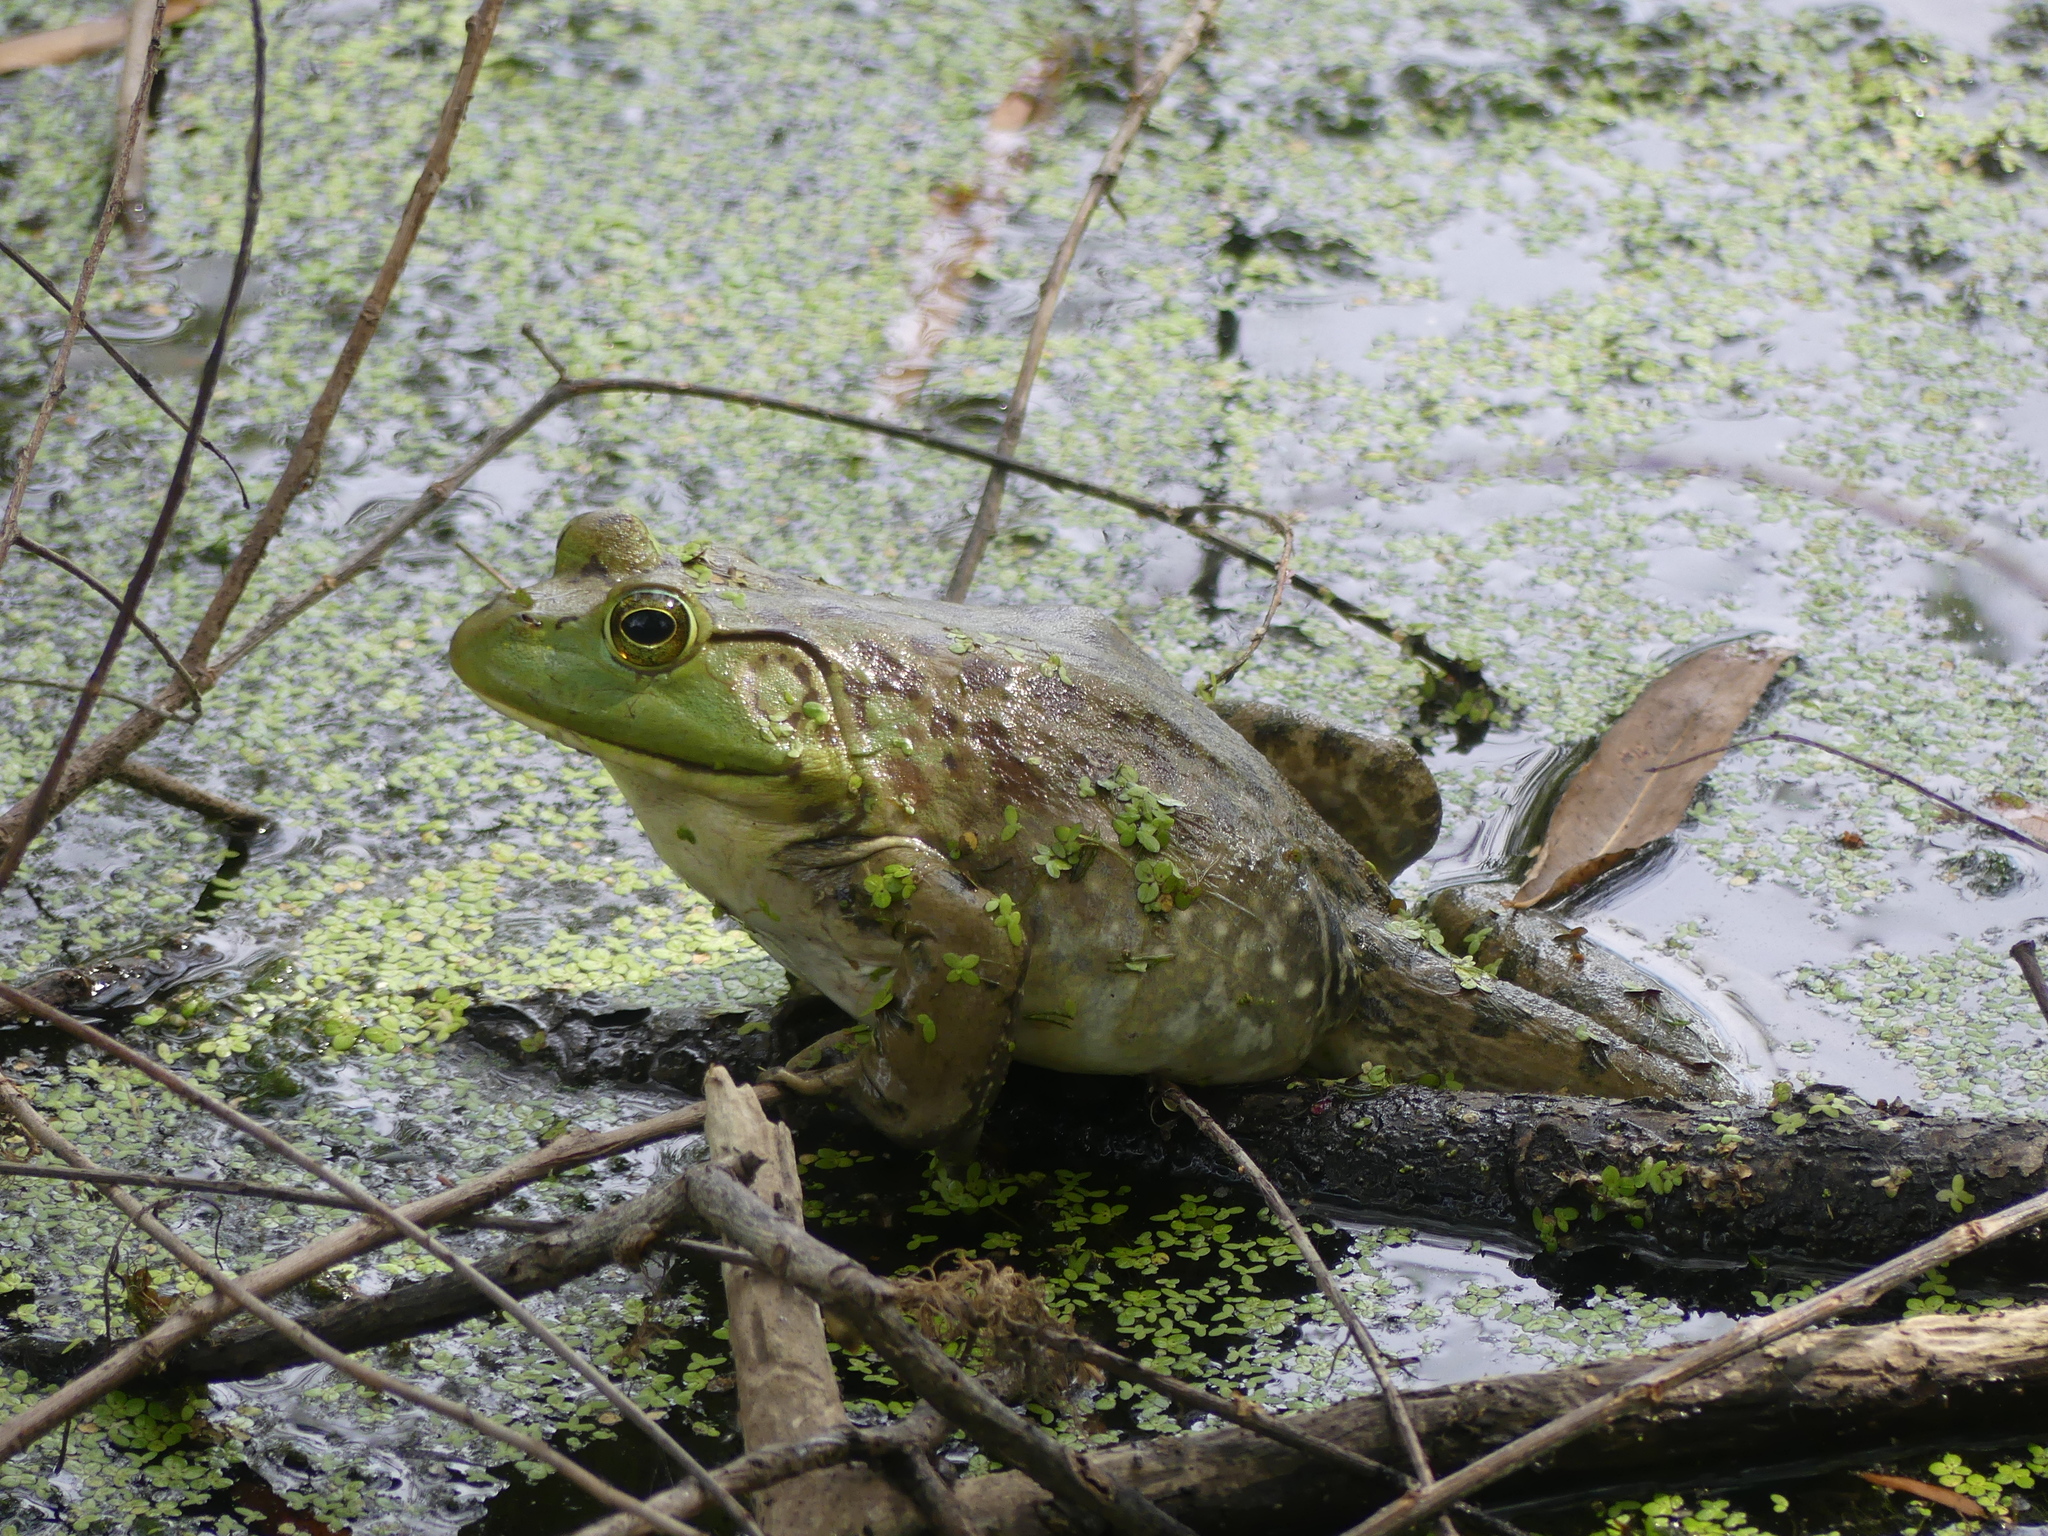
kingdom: Animalia
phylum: Chordata
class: Amphibia
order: Anura
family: Ranidae
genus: Lithobates
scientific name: Lithobates catesbeianus
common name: American bullfrog
